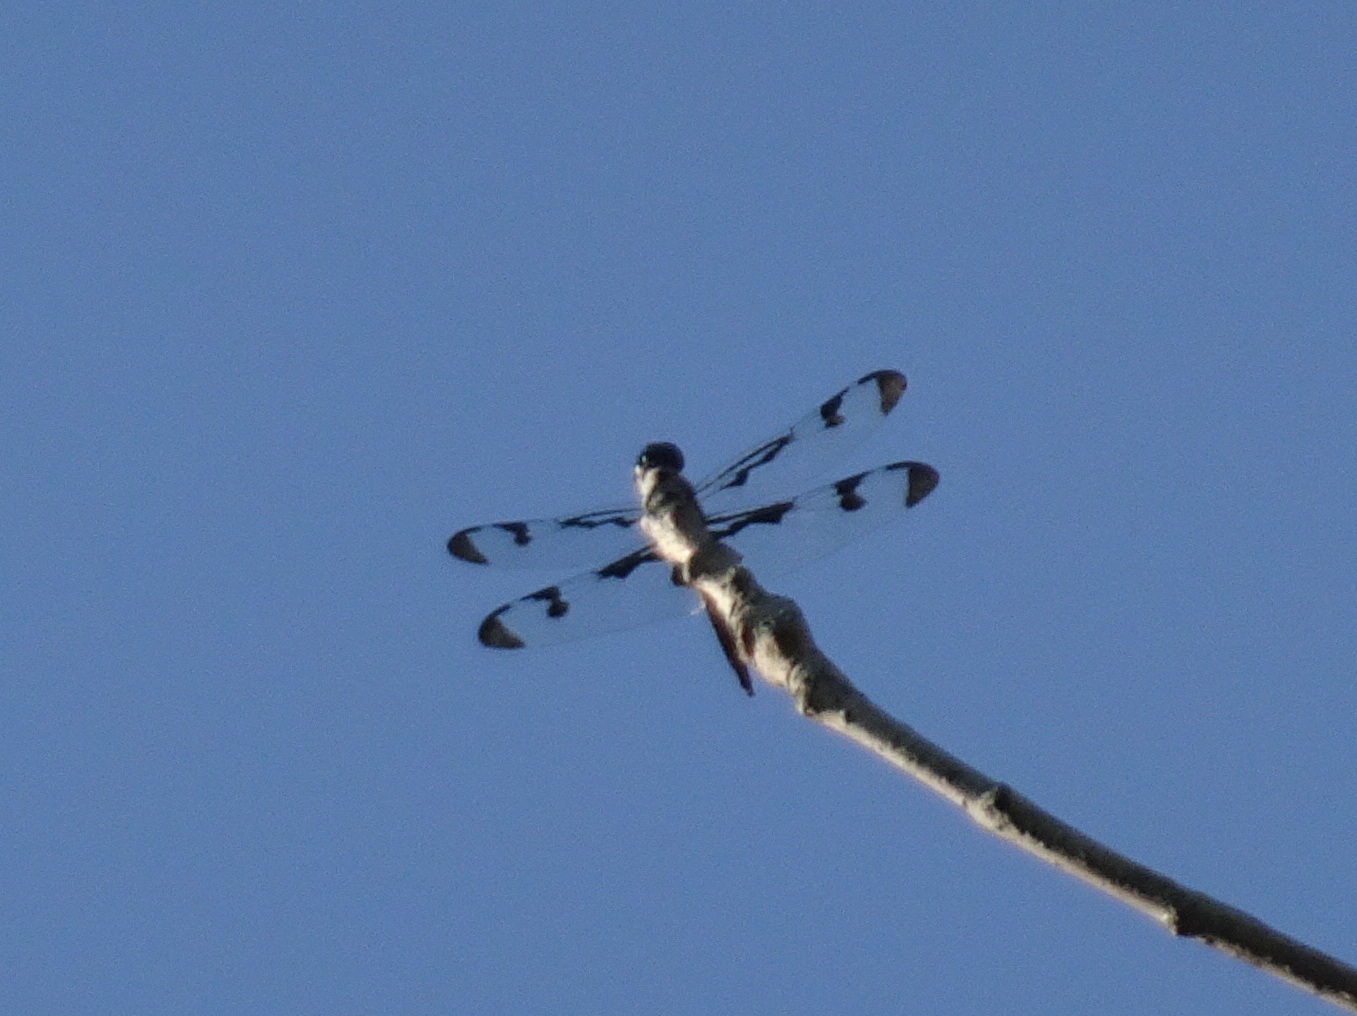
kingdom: Animalia
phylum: Arthropoda
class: Insecta
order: Odonata
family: Libellulidae
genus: Celithemis
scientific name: Celithemis fasciata
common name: Banded pennant
